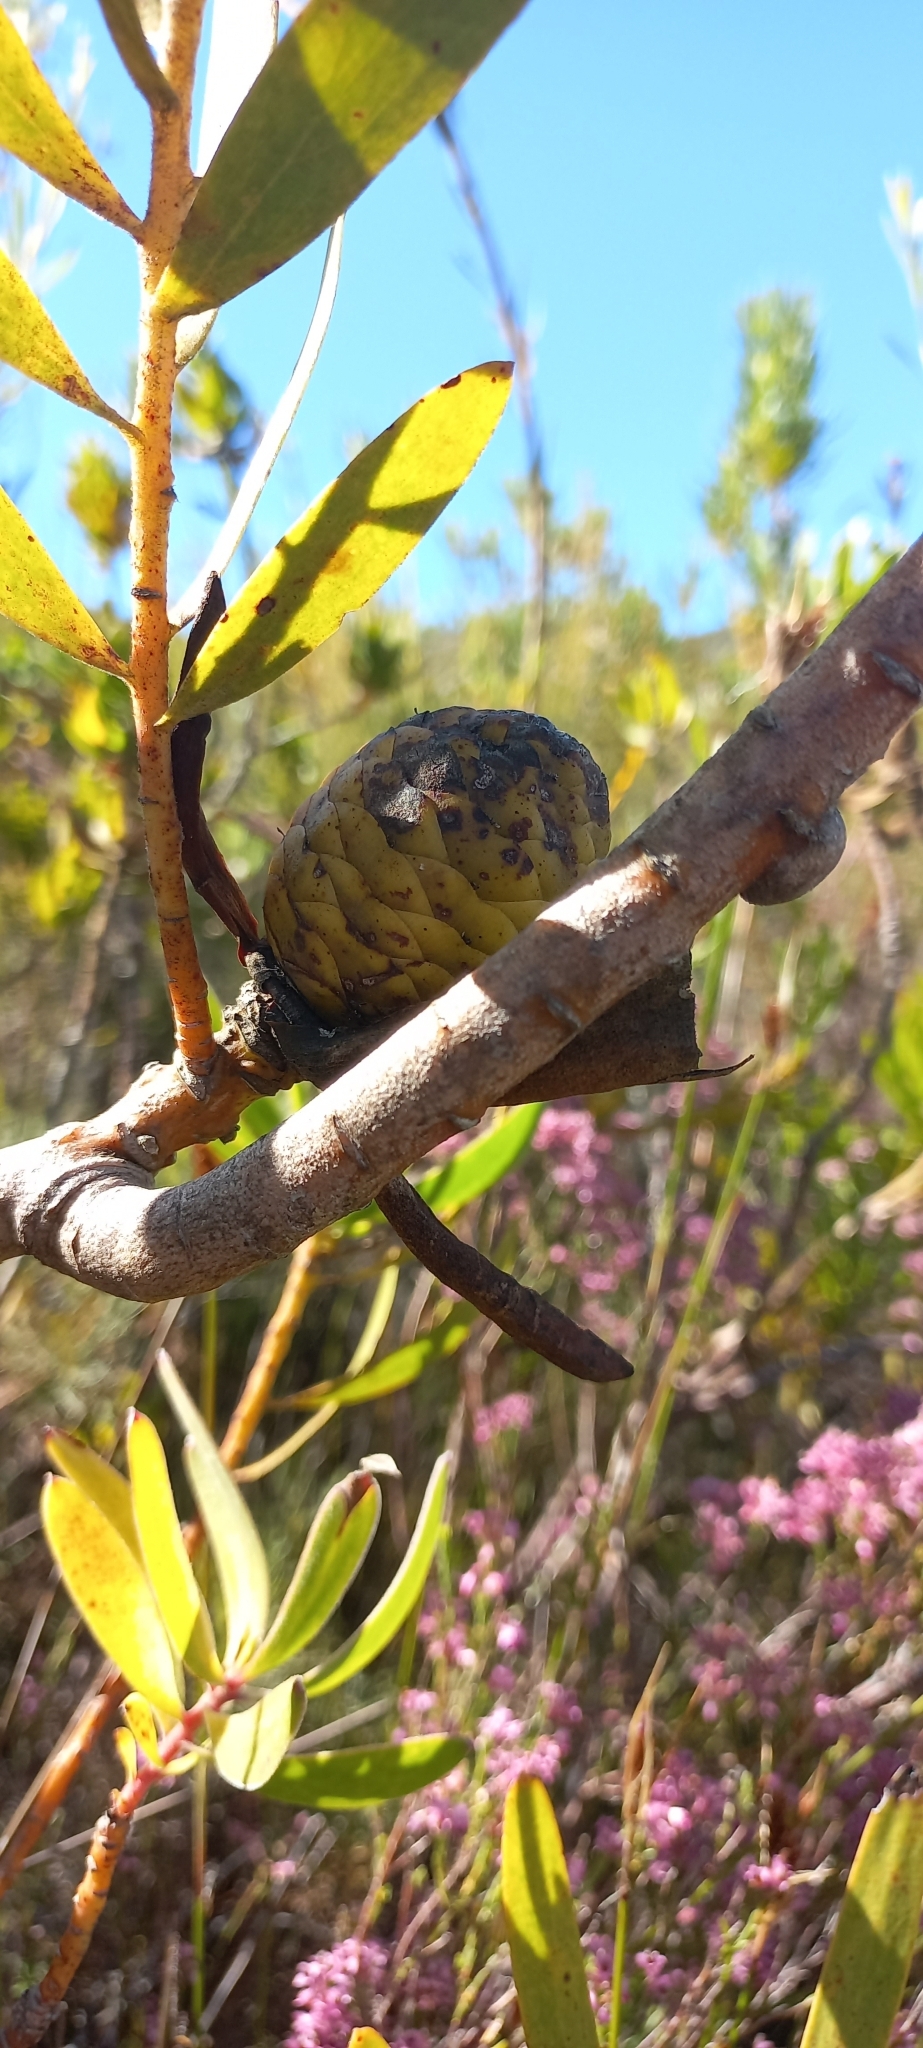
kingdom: Plantae
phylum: Tracheophyta
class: Magnoliopsida
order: Proteales
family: Proteaceae
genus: Leucadendron
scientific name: Leucadendron laureolum
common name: Golden sunshinebush
